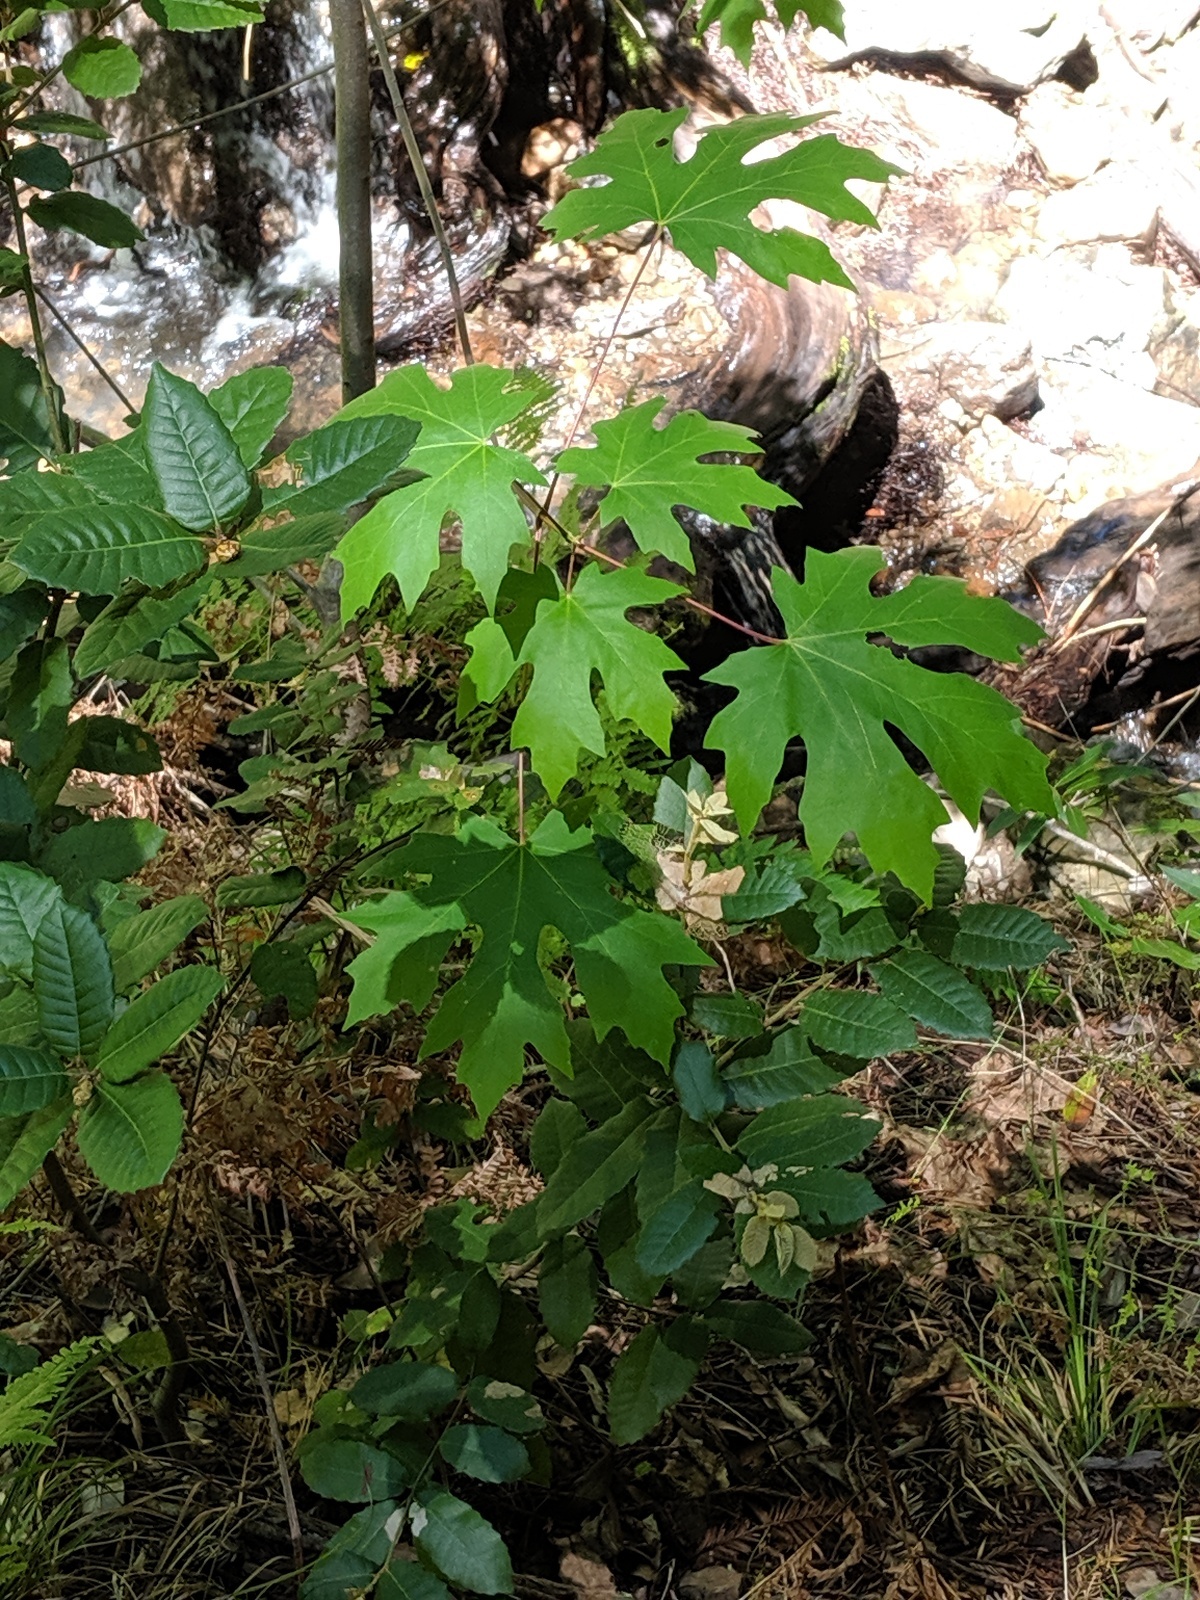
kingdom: Plantae
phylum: Tracheophyta
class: Magnoliopsida
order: Sapindales
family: Sapindaceae
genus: Acer
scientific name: Acer macrophyllum
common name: Oregon maple
